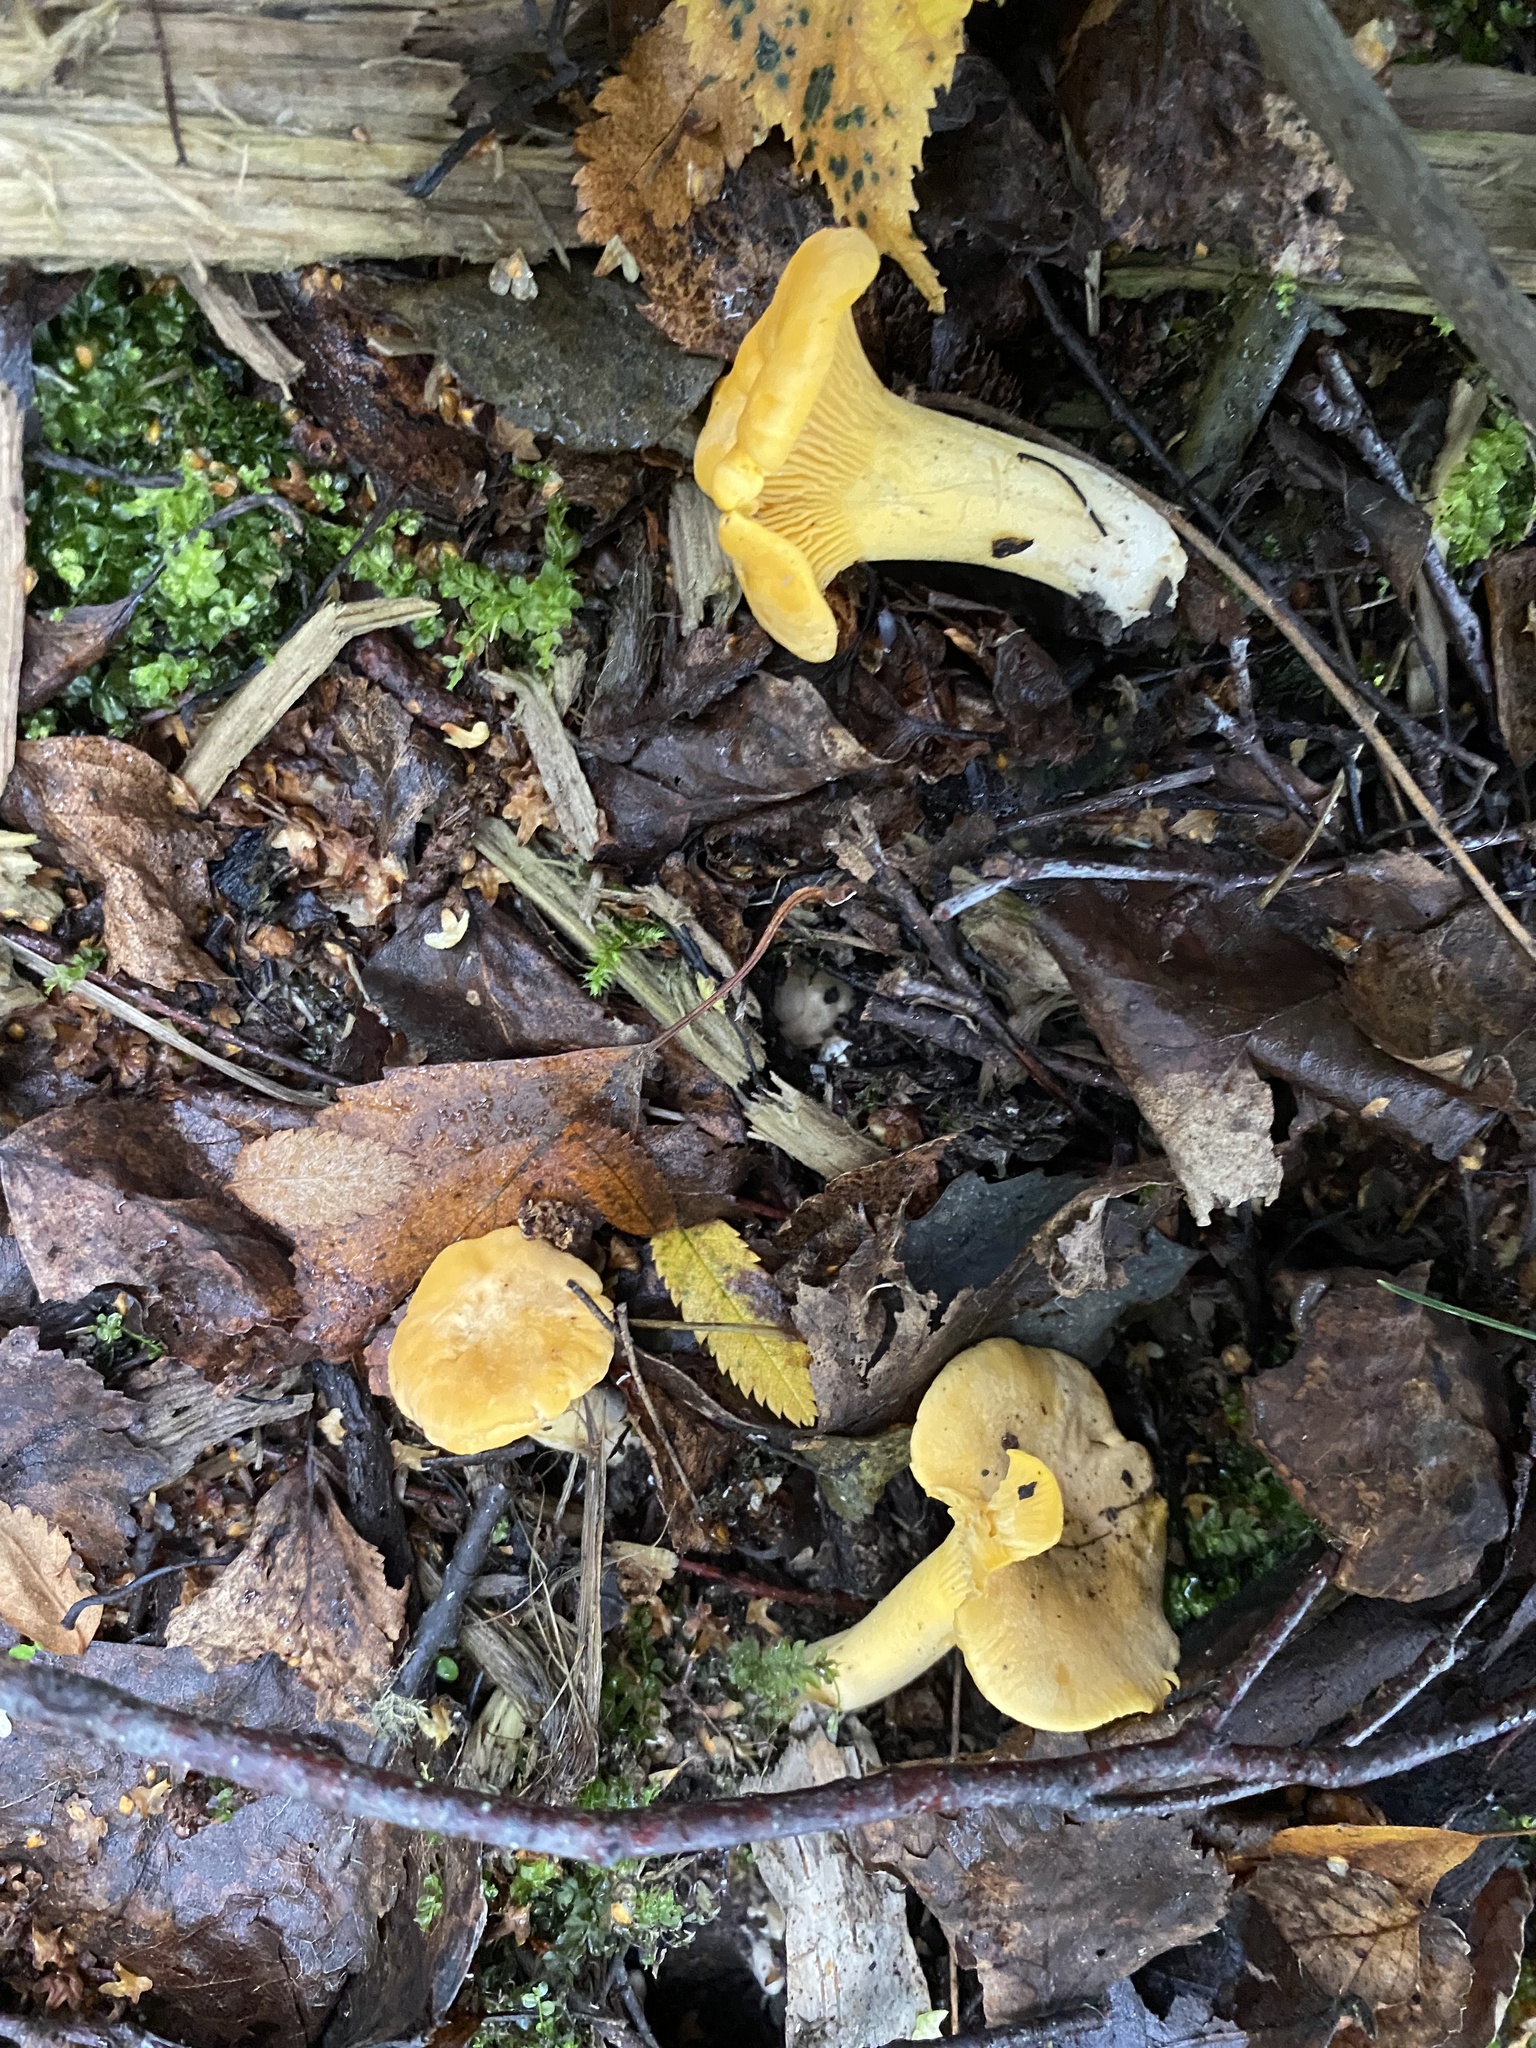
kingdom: Fungi
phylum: Basidiomycota
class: Agaricomycetes
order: Cantharellales
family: Hydnaceae
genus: Cantharellus
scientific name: Cantharellus cibarius
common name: Chanterelle
